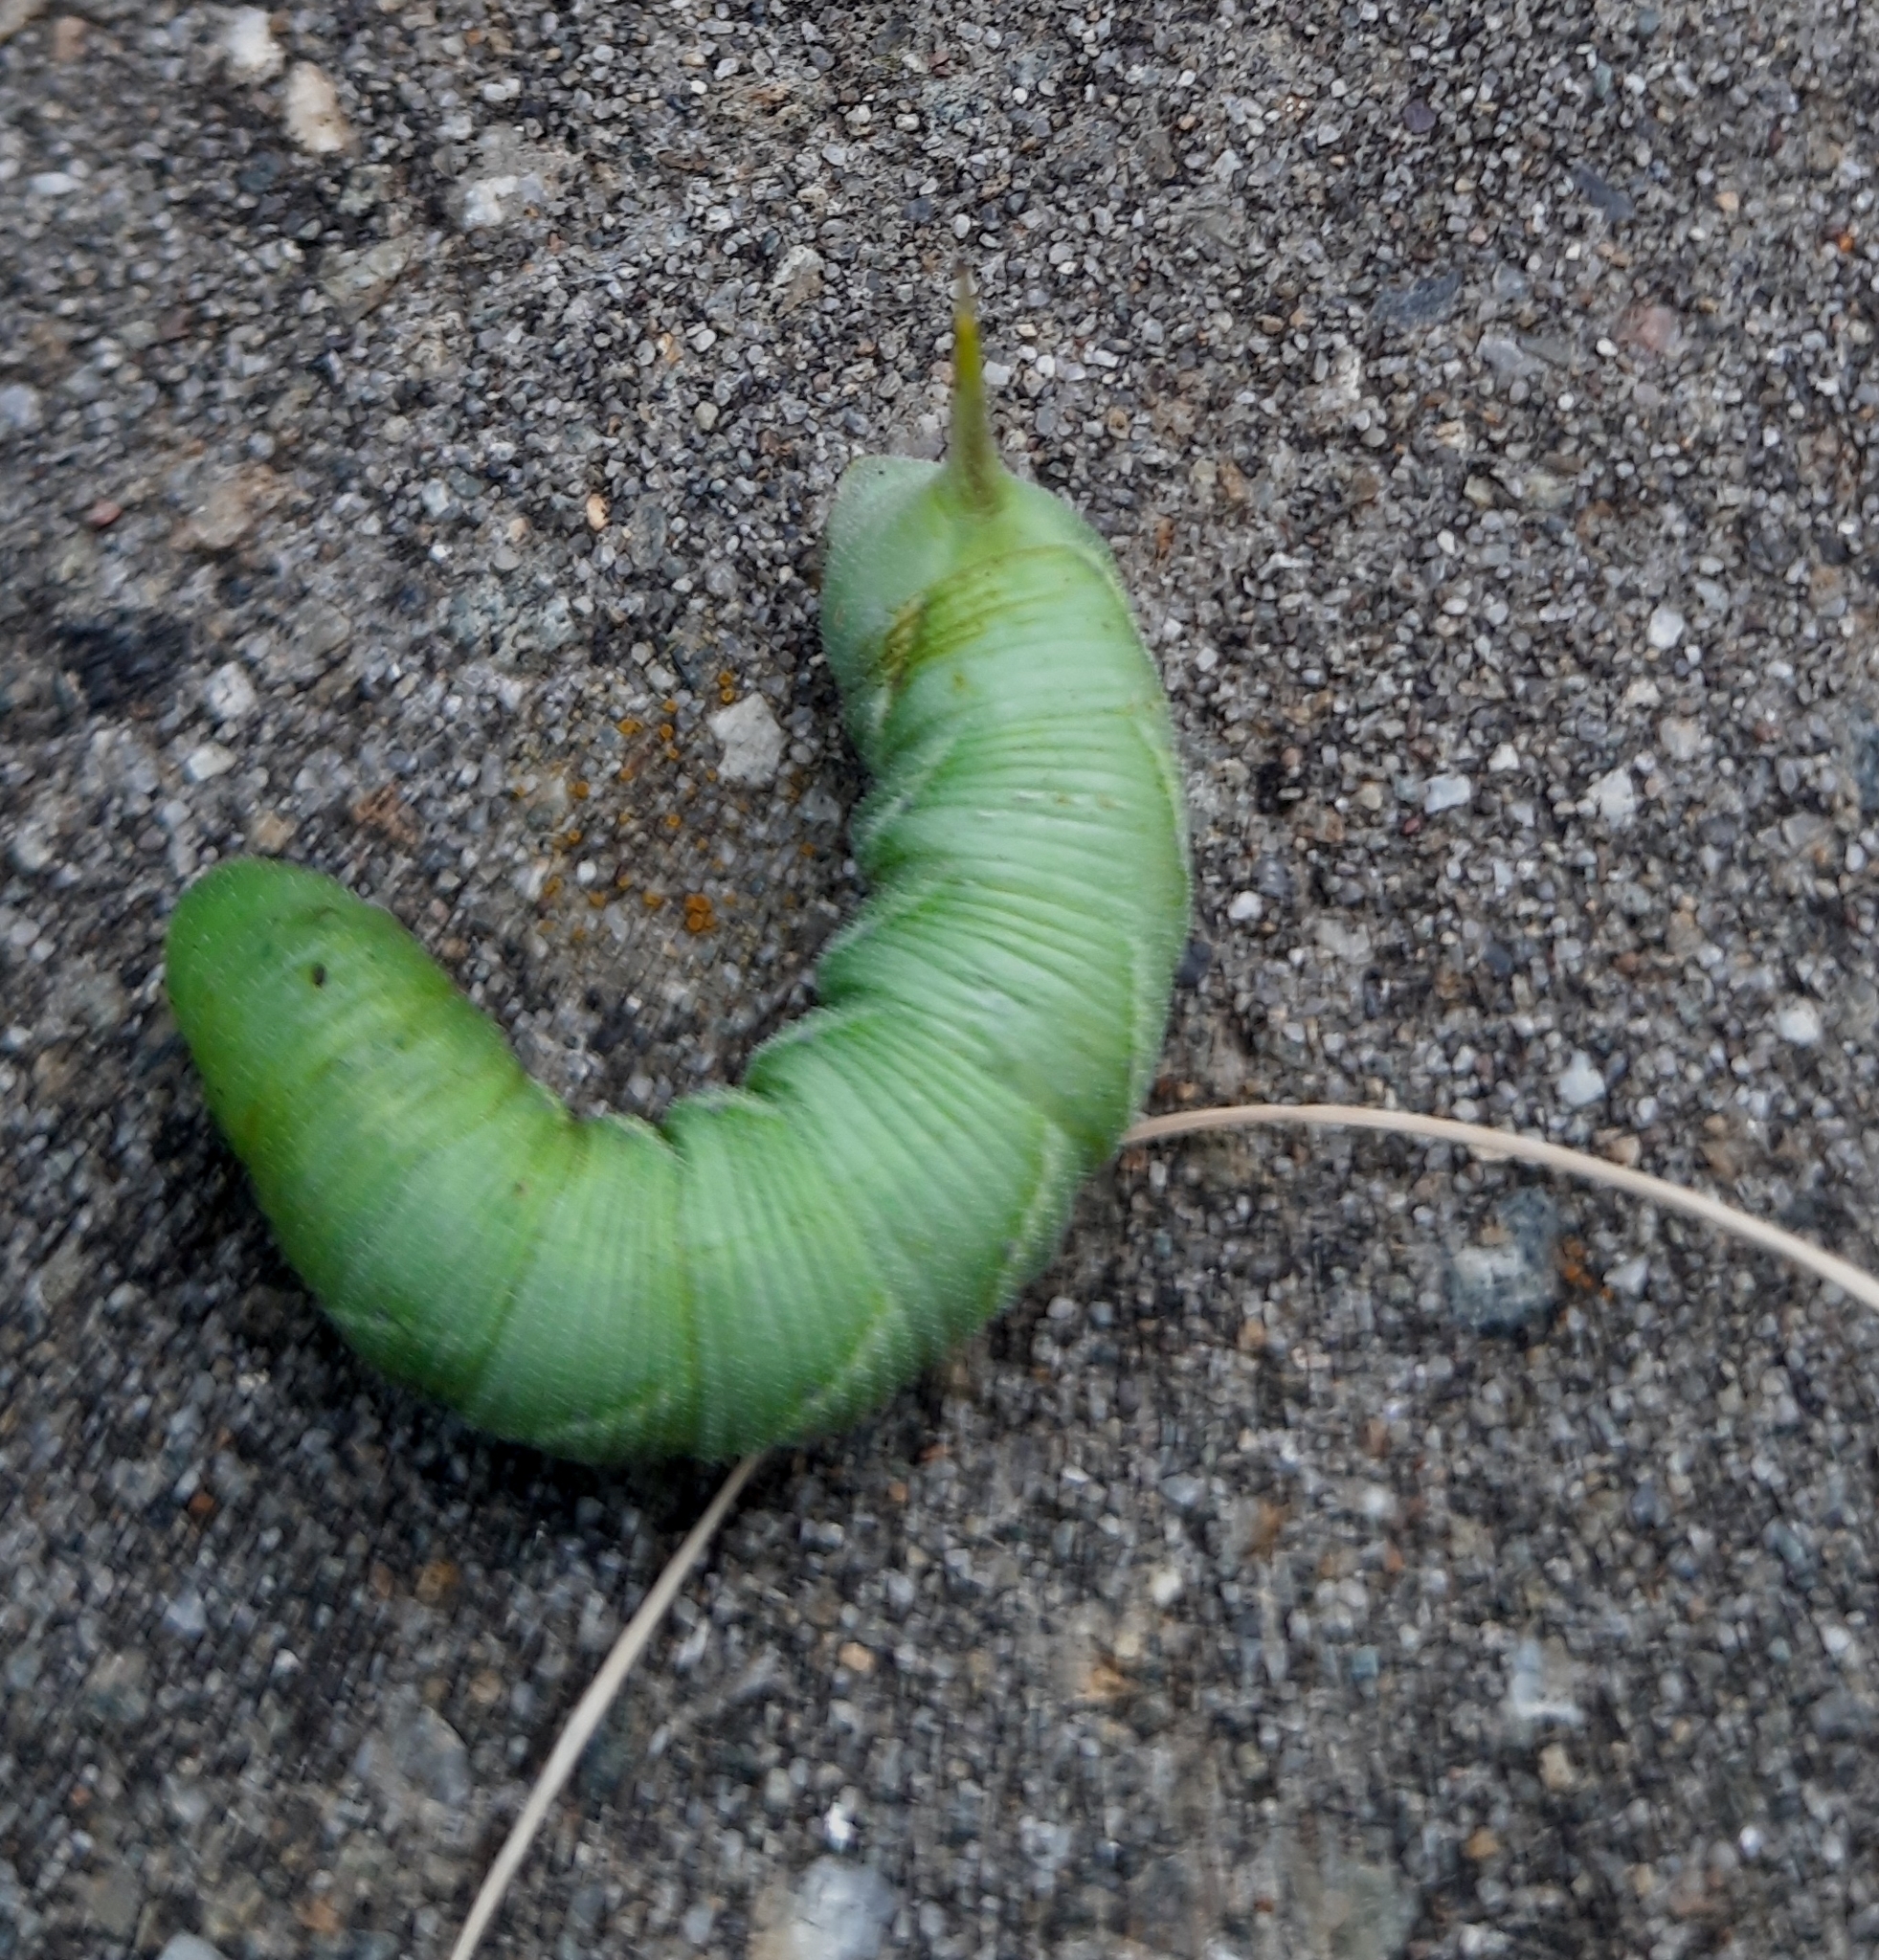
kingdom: Animalia
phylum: Arthropoda
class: Insecta
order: Lepidoptera
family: Sphingidae
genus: Agrius
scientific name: Agrius convolvuli
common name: Convolvulus hawkmoth
